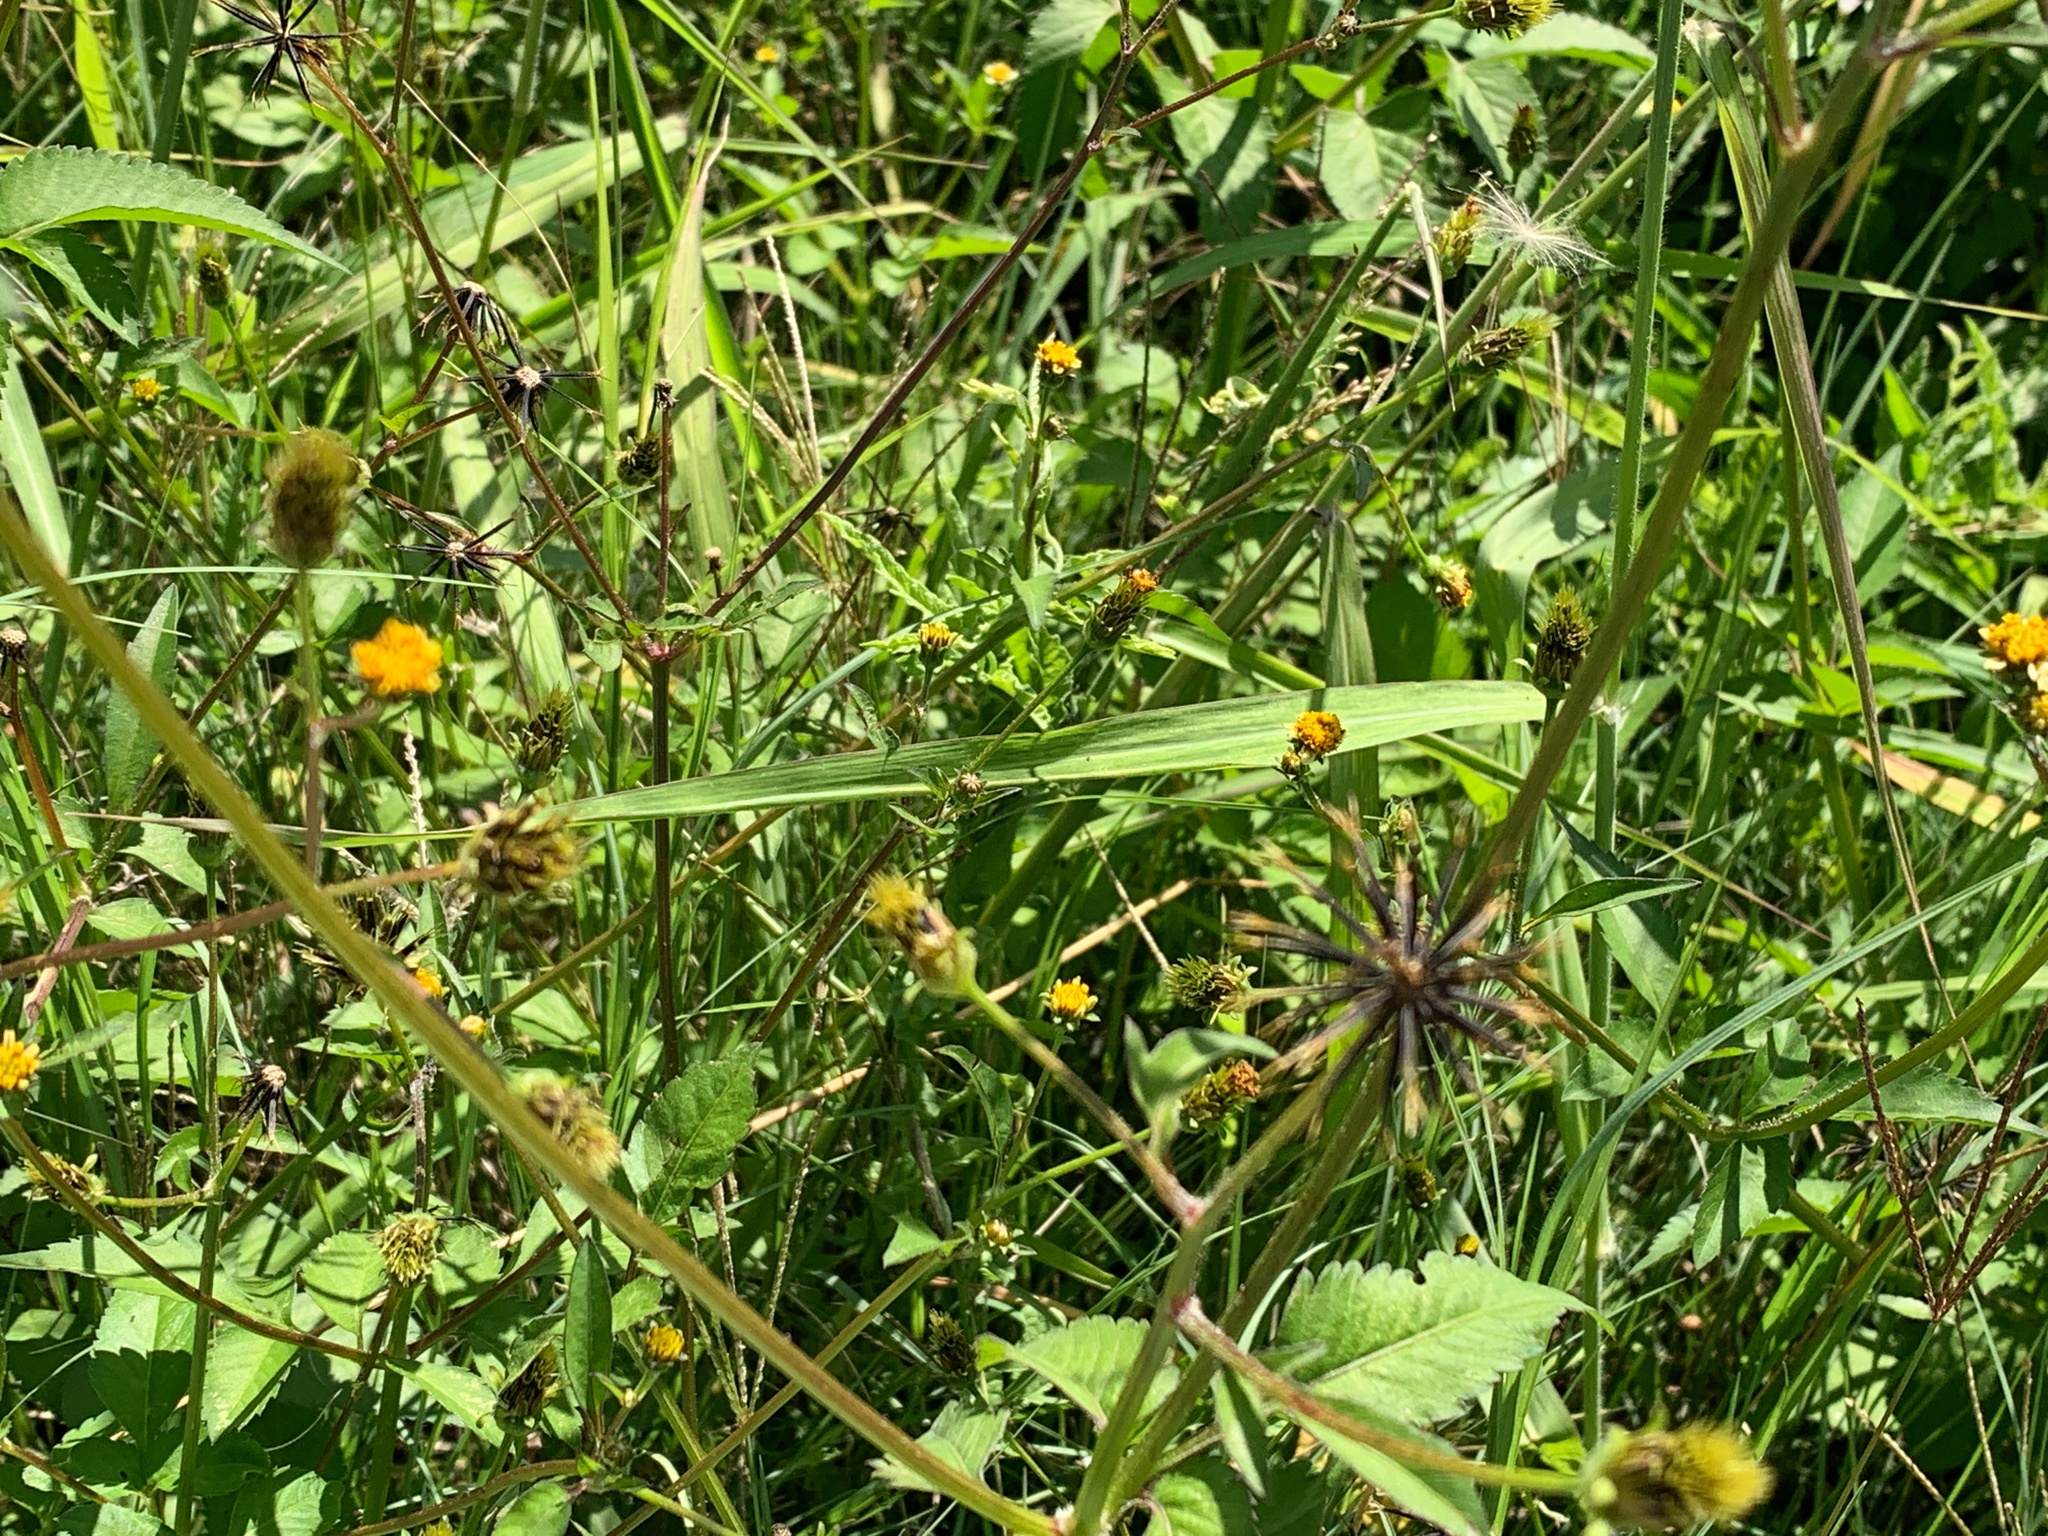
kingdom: Plantae
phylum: Tracheophyta
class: Magnoliopsida
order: Asterales
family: Asteraceae
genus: Bidens
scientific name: Bidens pilosa
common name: Black-jack
